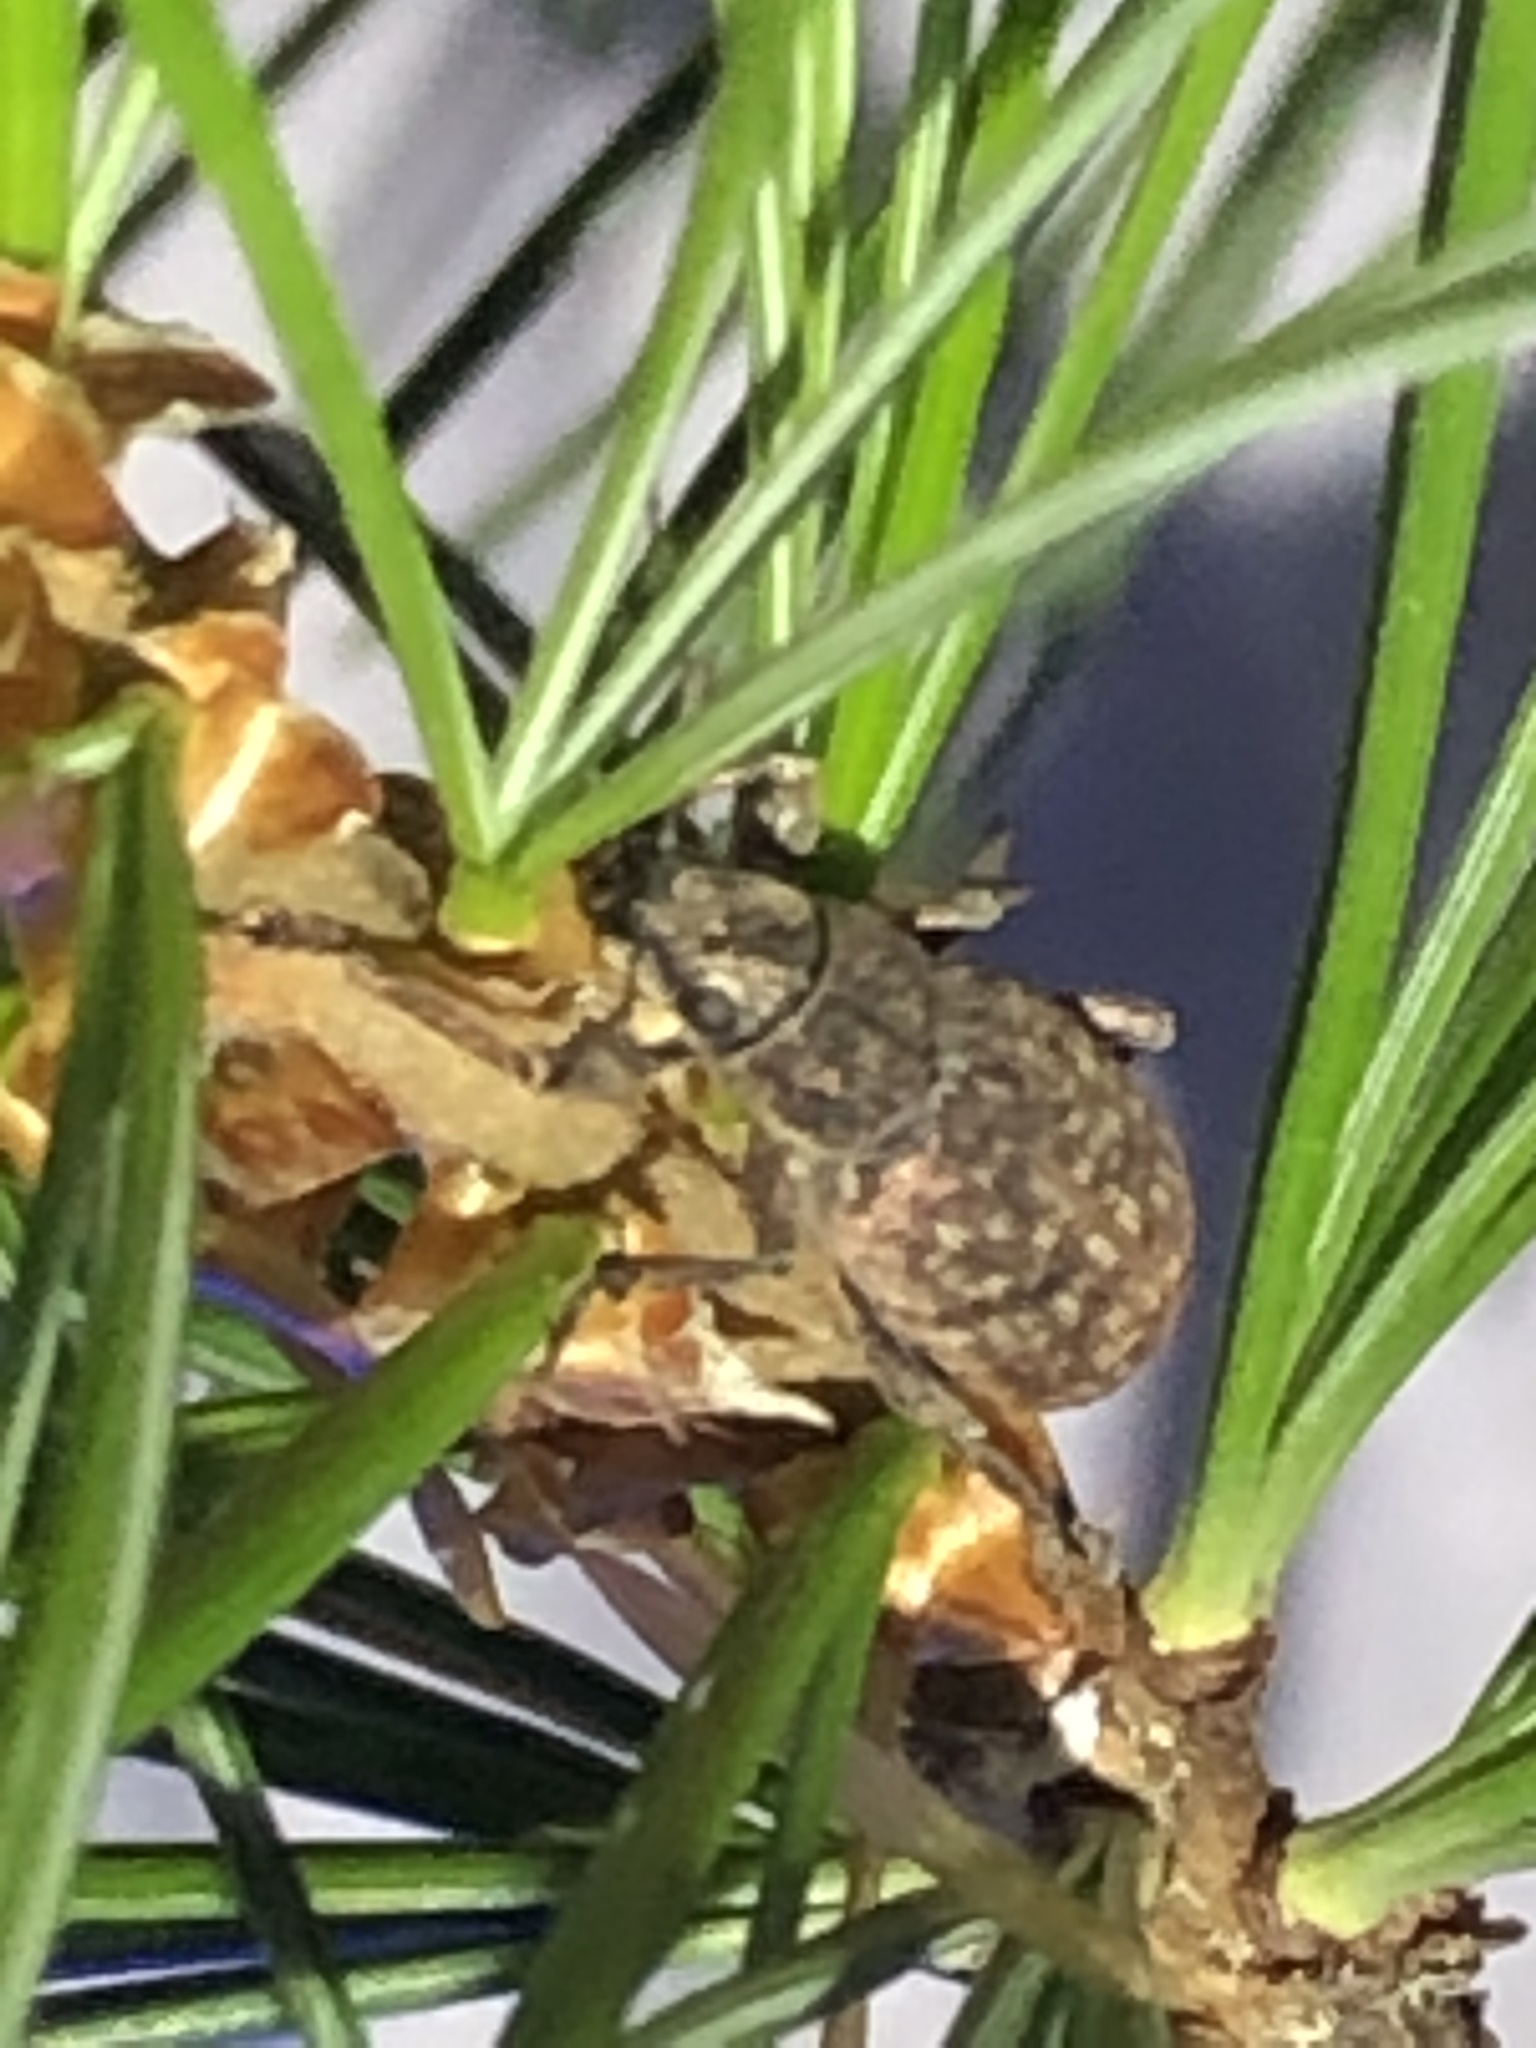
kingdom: Animalia
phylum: Arthropoda
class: Insecta
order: Coleoptera
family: Curculionidae
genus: Brachyderes
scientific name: Brachyderes incanus
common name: Weevil
